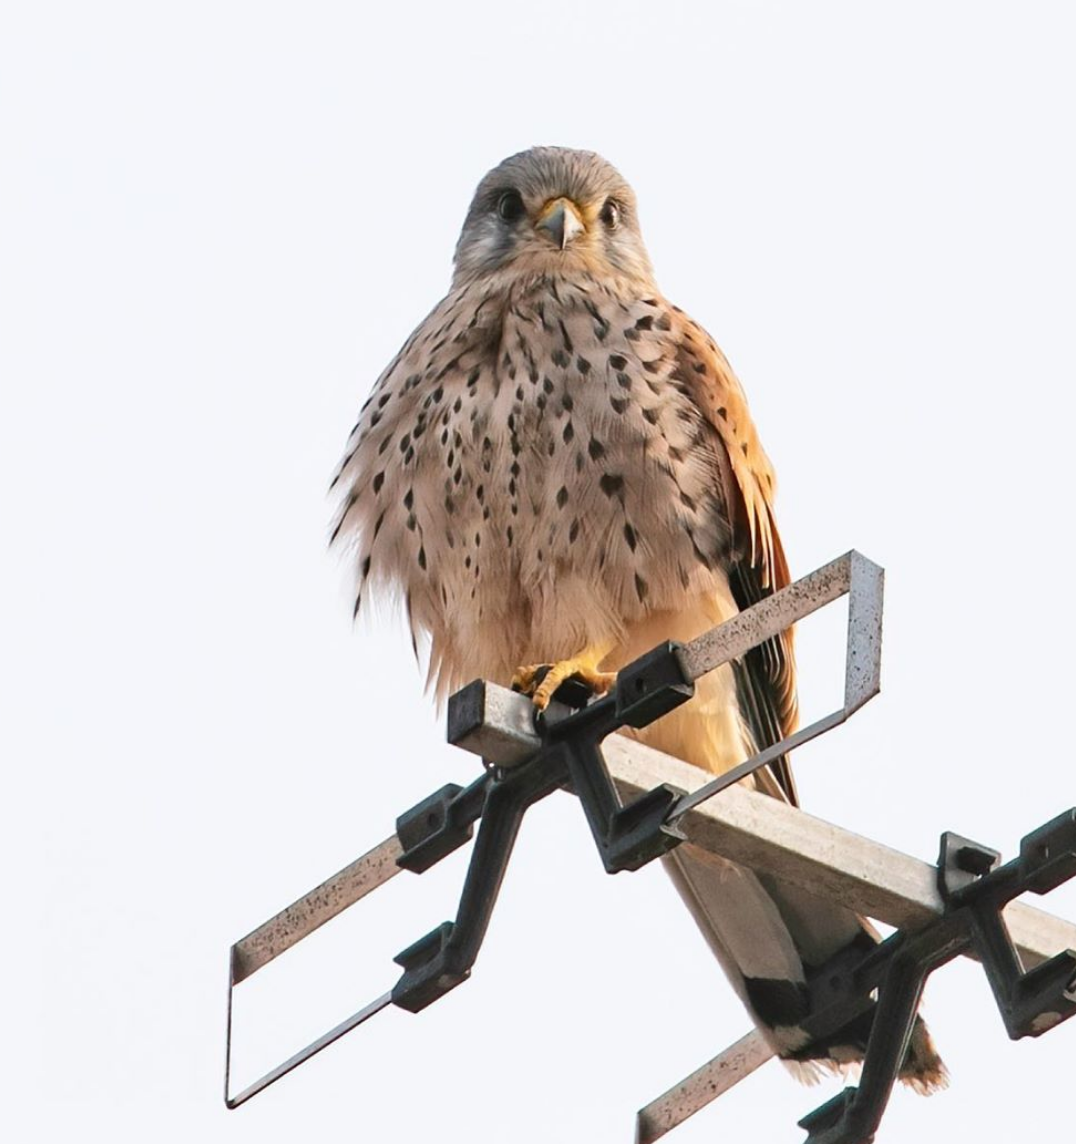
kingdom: Animalia
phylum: Chordata
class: Aves
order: Falconiformes
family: Falconidae
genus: Falco
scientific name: Falco tinnunculus
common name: Common kestrel
